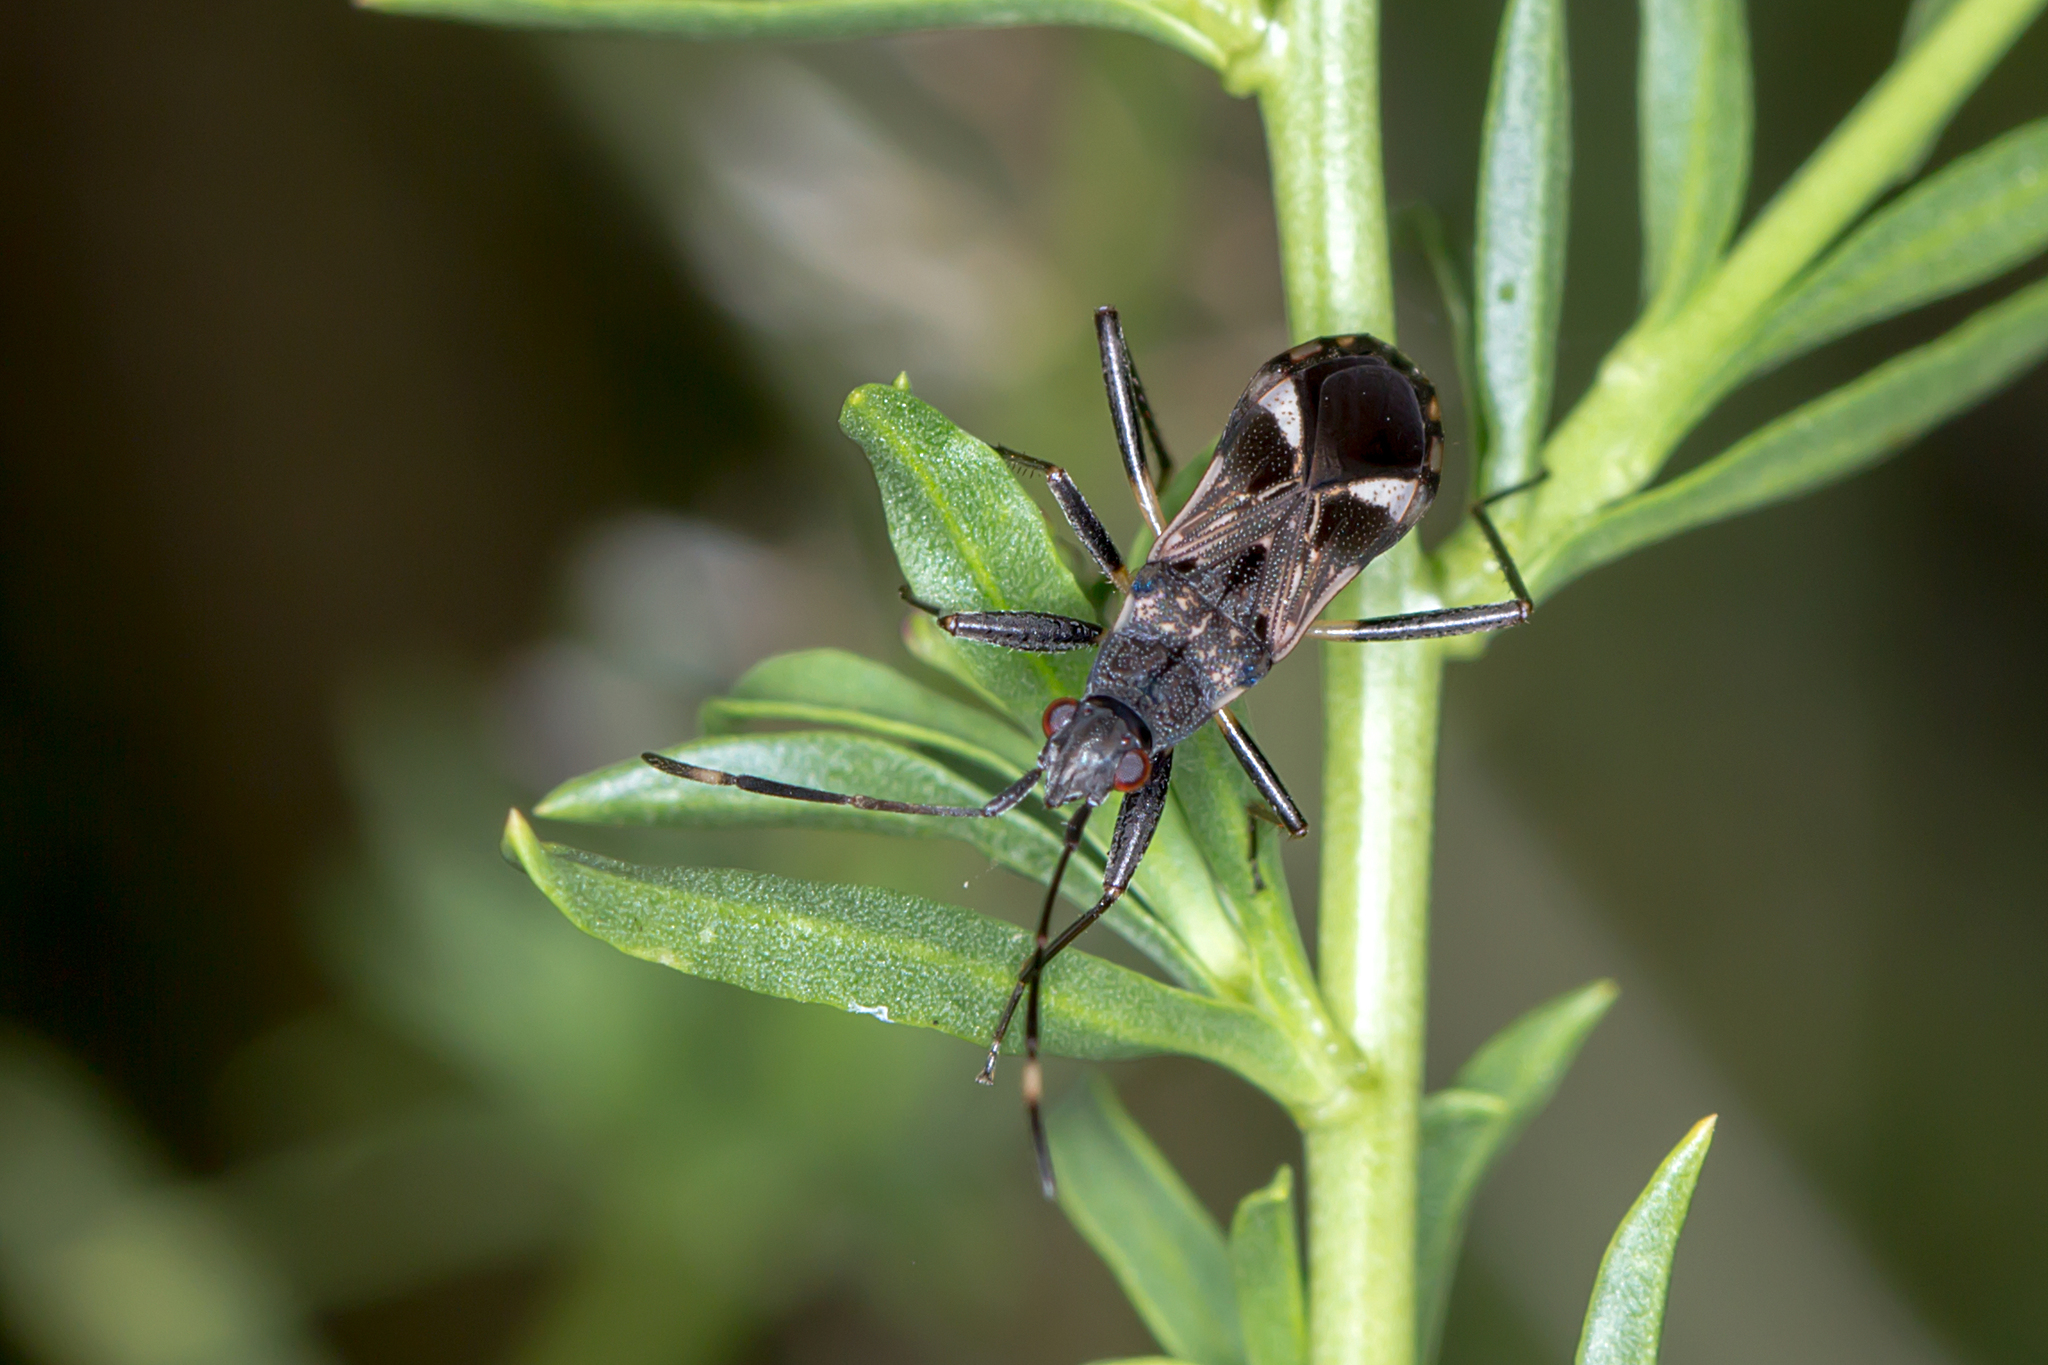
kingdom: Animalia
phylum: Arthropoda
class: Insecta
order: Hemiptera
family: Rhyparochromidae
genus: Dieuches
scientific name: Dieuches notatus
